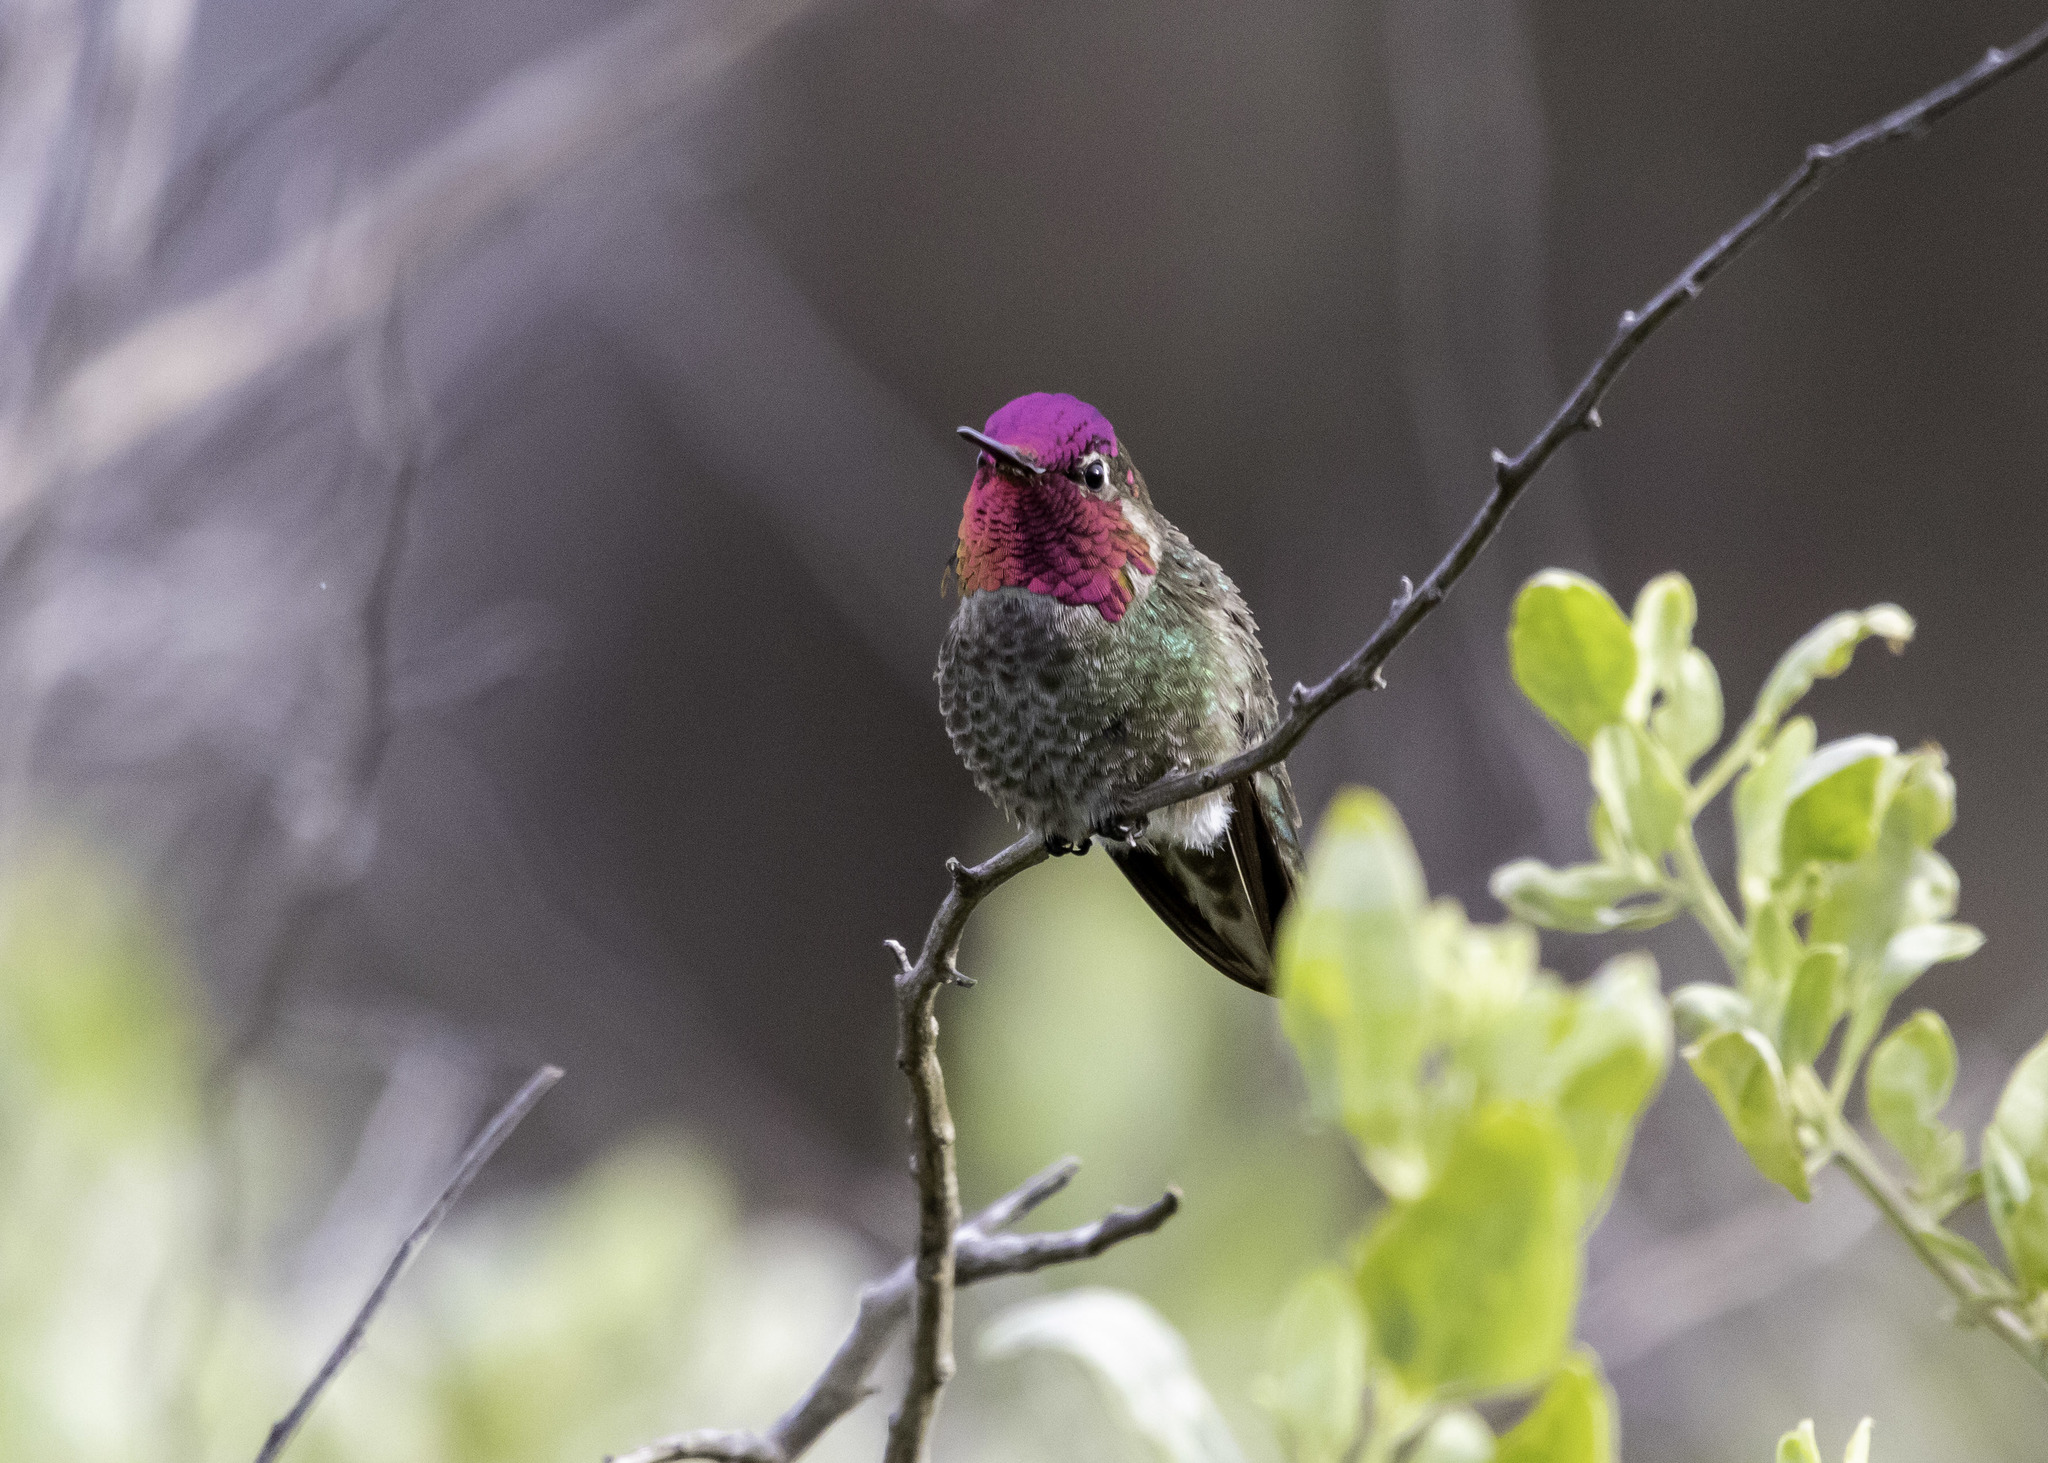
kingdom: Animalia
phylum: Chordata
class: Aves
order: Apodiformes
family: Trochilidae
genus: Calypte
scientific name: Calypte anna
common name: Anna's hummingbird
